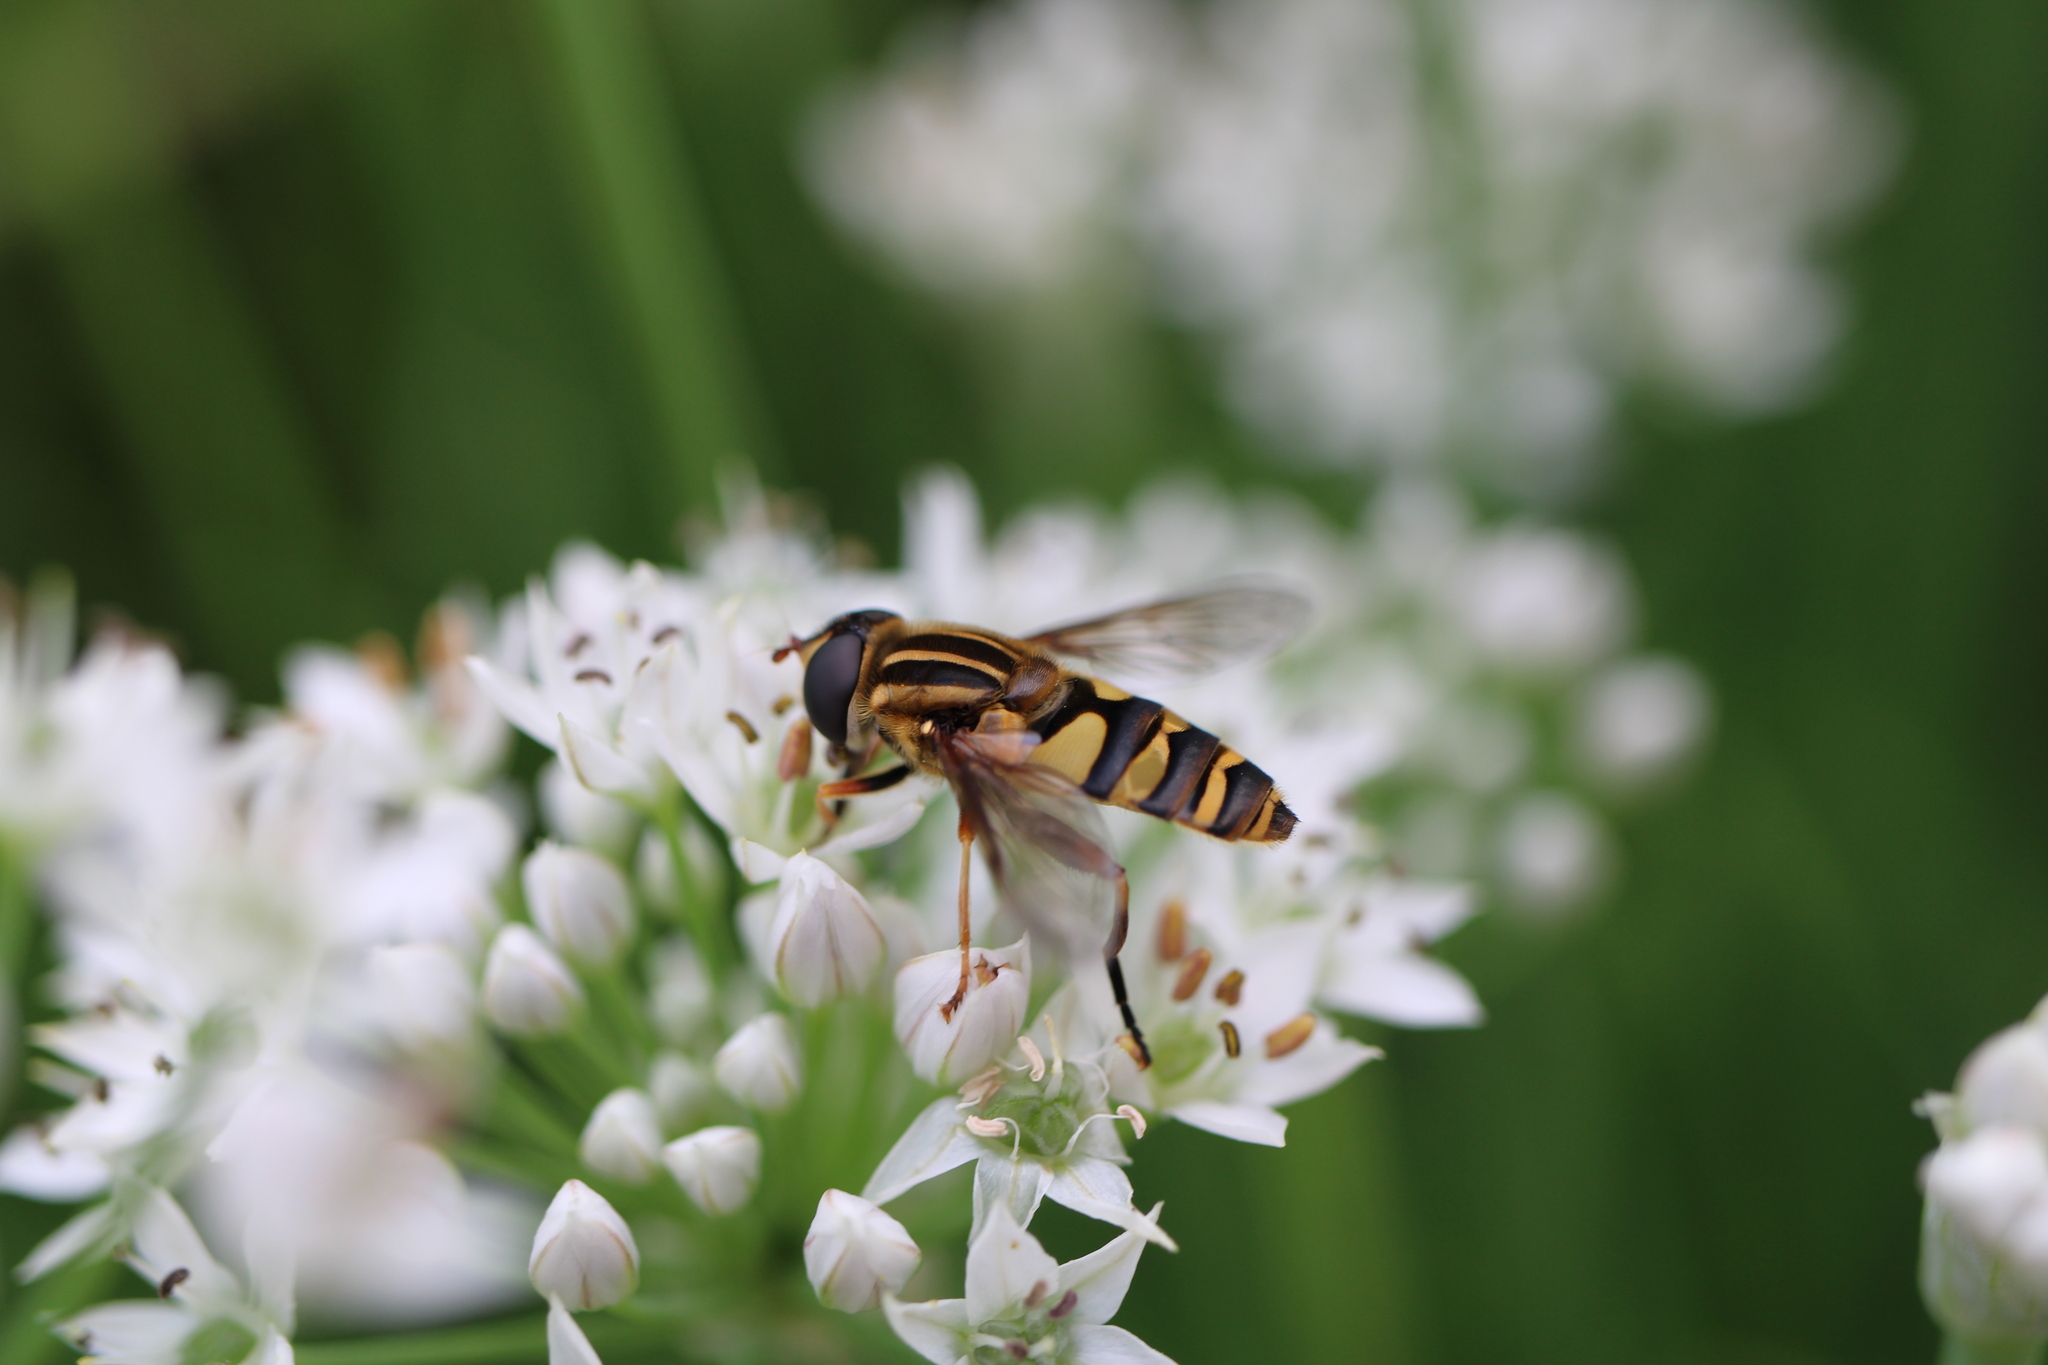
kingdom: Animalia
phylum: Arthropoda
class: Insecta
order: Diptera
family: Syrphidae
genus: Helophilus
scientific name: Helophilus fasciatus
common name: Narrow-headed marsh fly
